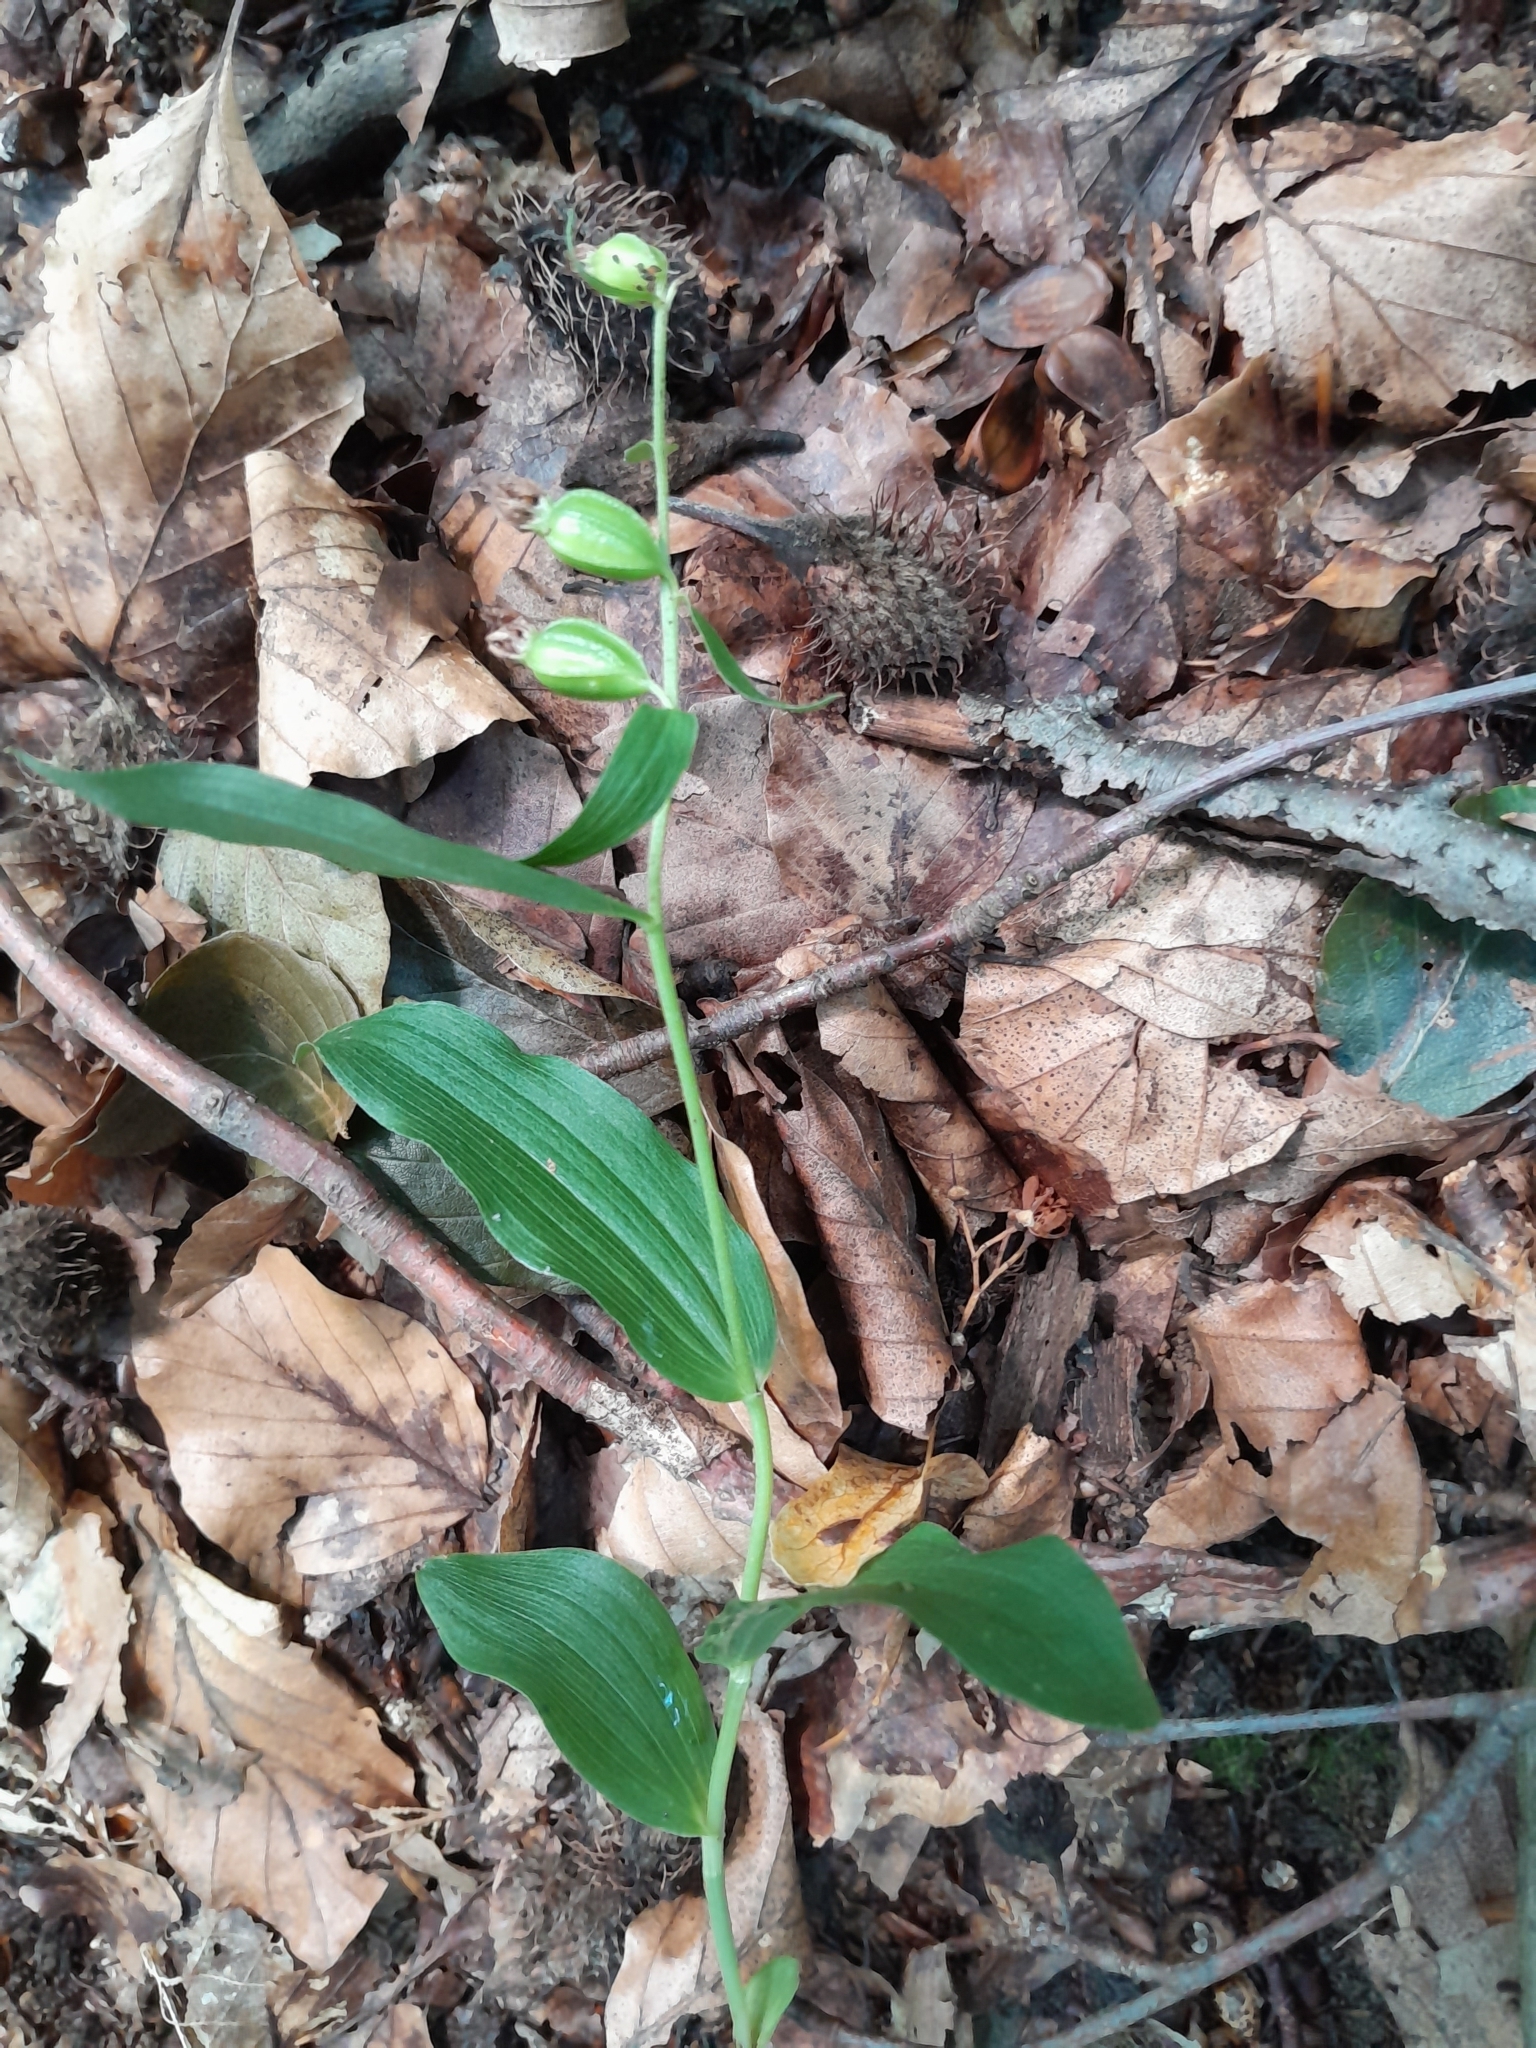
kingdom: Plantae
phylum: Tracheophyta
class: Liliopsida
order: Asparagales
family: Orchidaceae
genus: Cephalanthera
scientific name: Cephalanthera damasonium
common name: White helleborine
